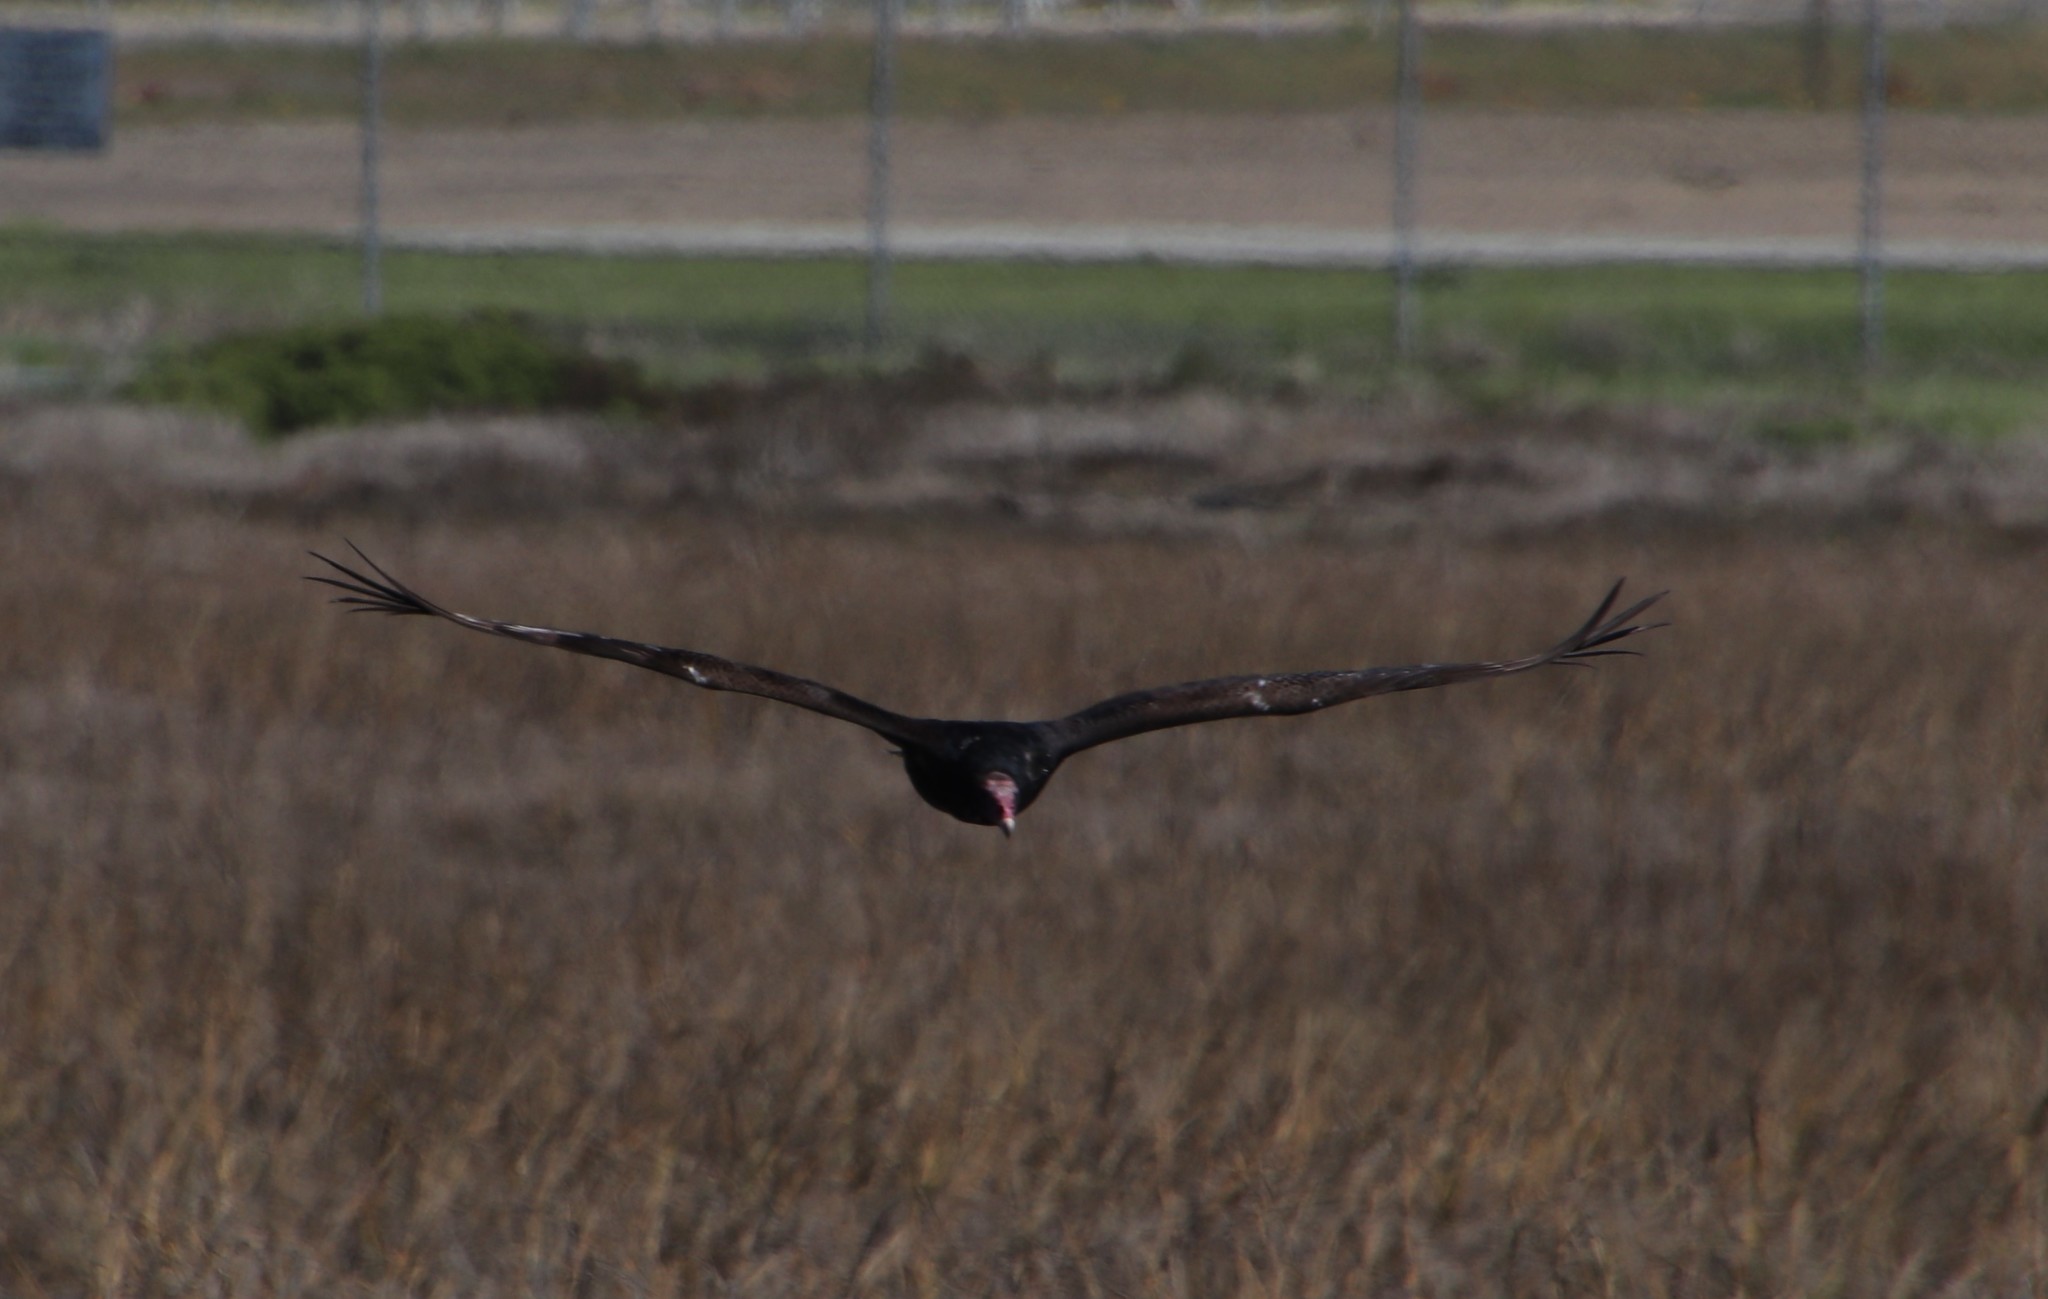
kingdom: Animalia
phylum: Chordata
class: Aves
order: Accipitriformes
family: Cathartidae
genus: Cathartes
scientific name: Cathartes aura
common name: Turkey vulture
